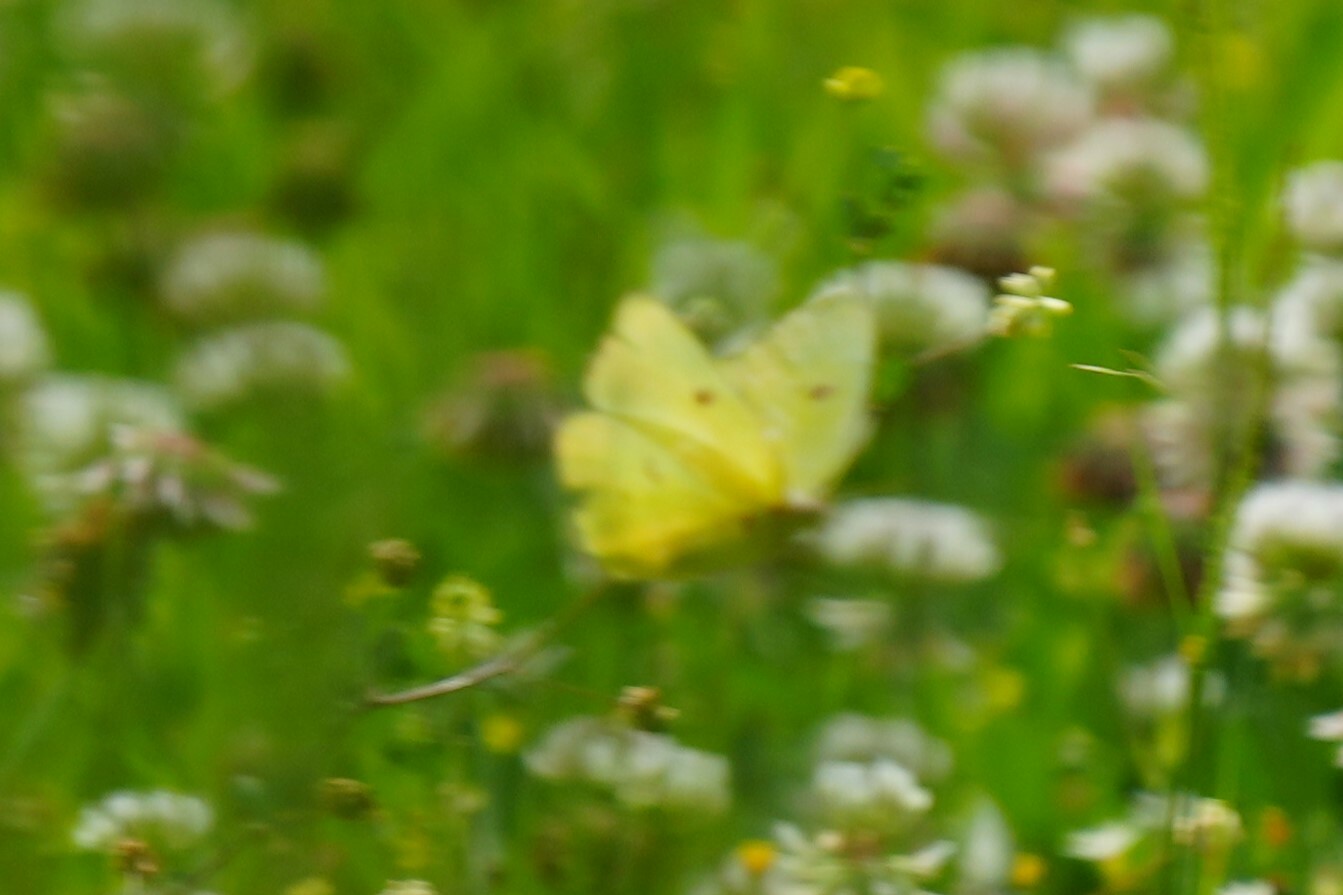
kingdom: Animalia
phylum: Arthropoda
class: Insecta
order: Lepidoptera
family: Pieridae
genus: Colias
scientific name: Colias eurytheme
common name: Alfalfa butterfly
